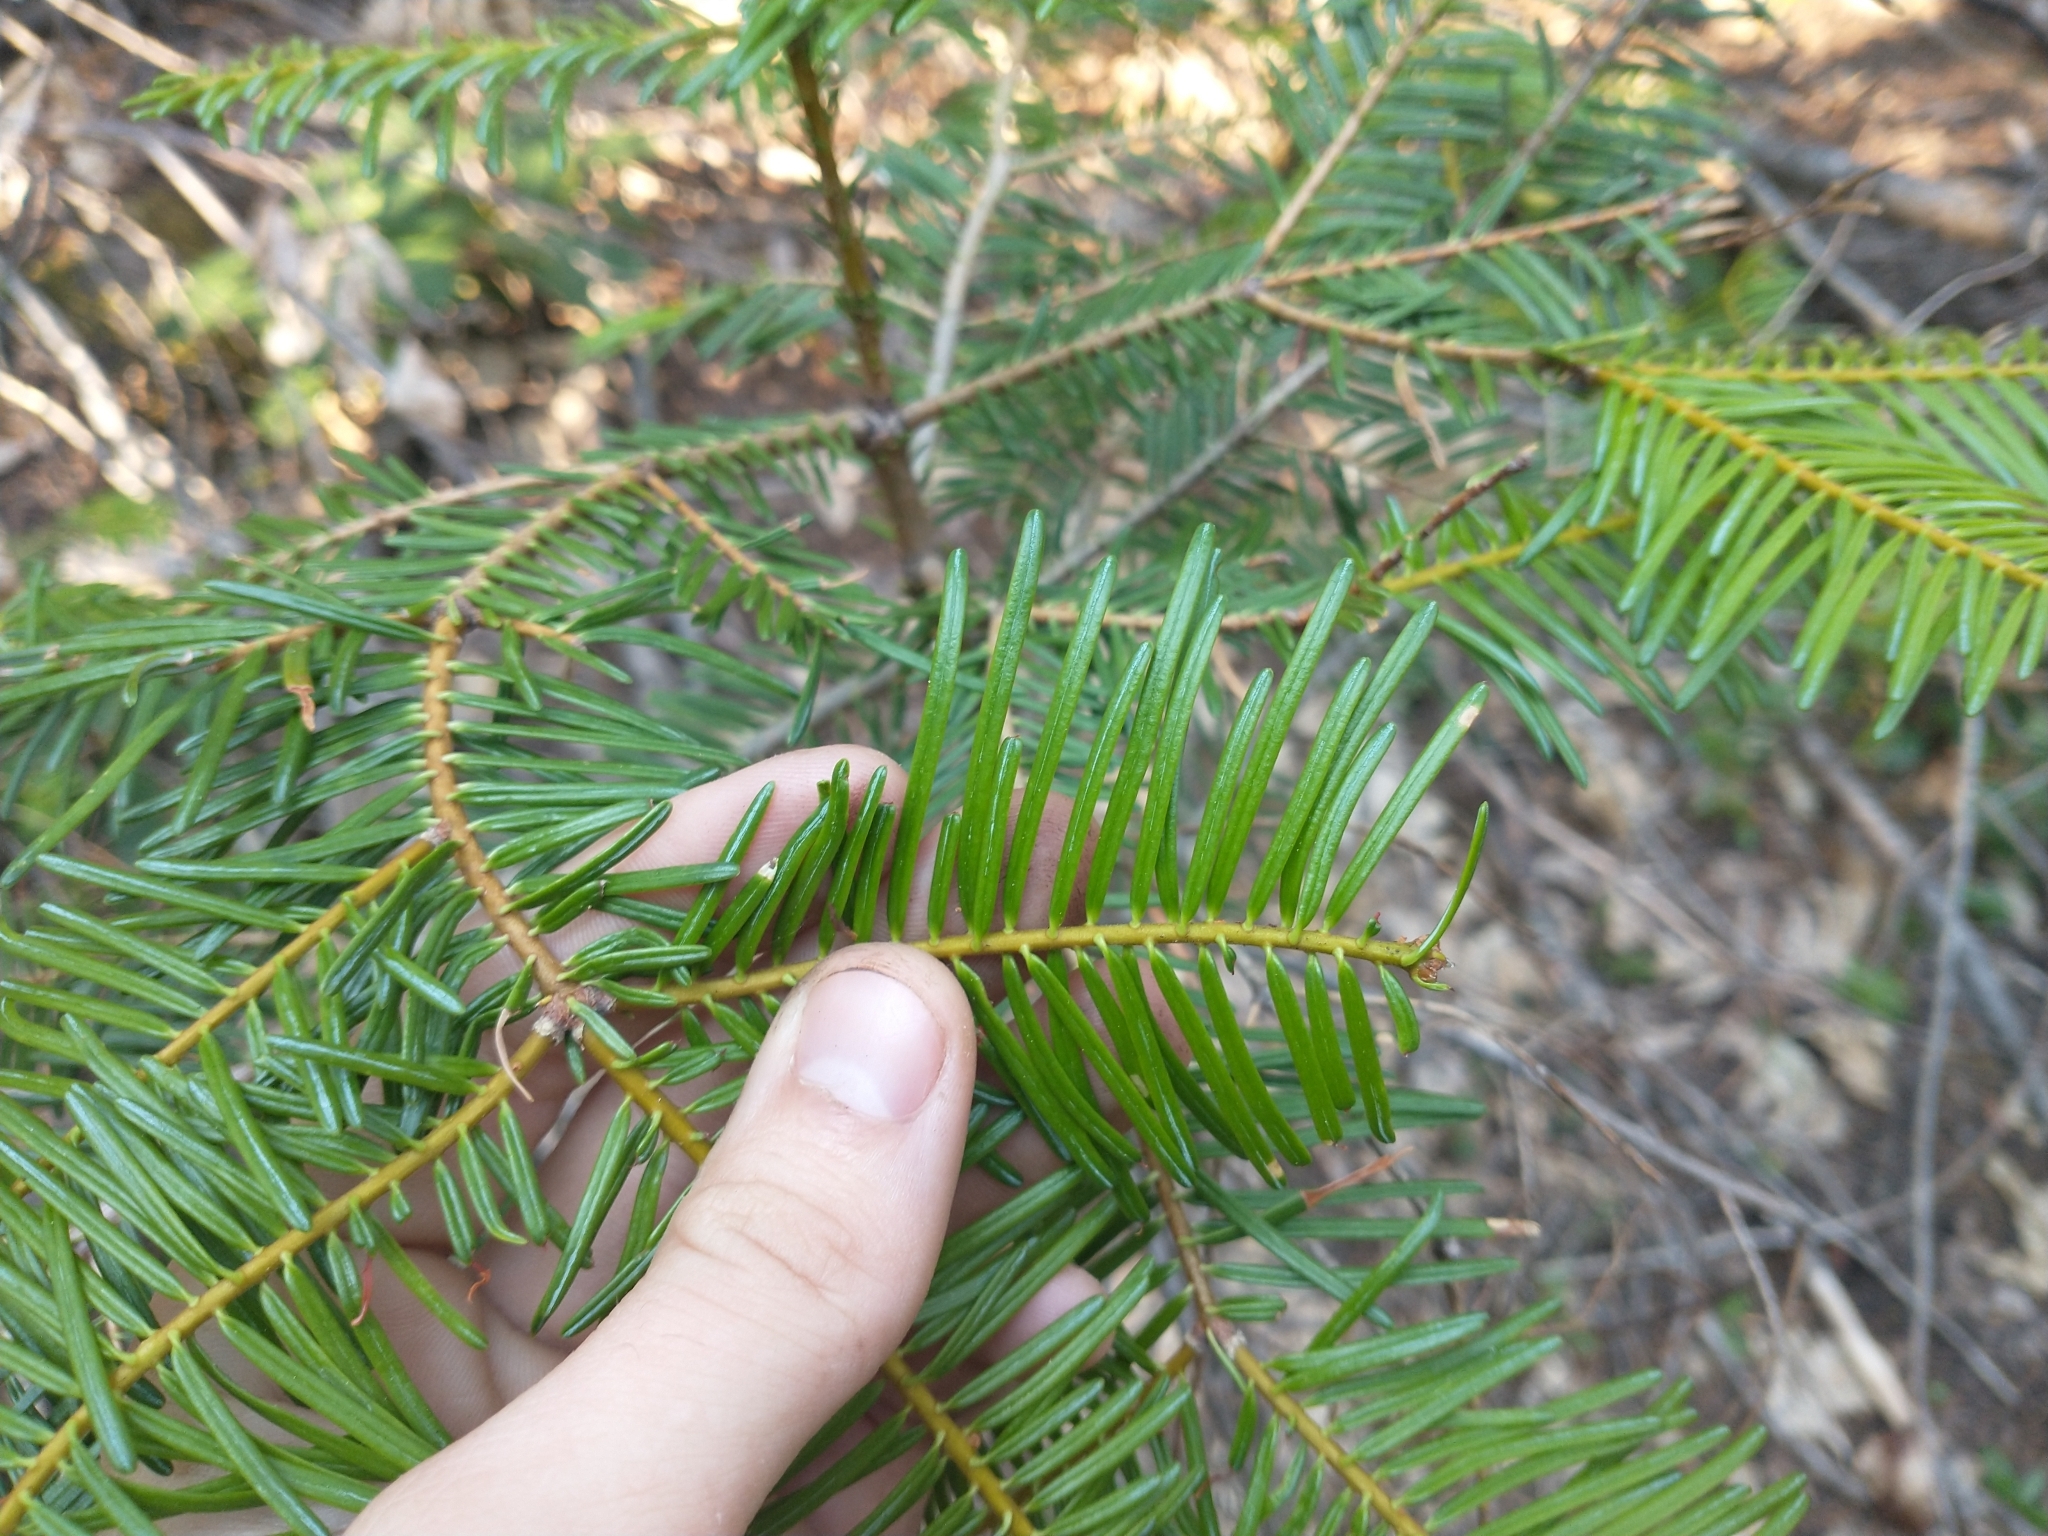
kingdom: Plantae
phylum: Tracheophyta
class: Pinopsida
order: Pinales
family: Pinaceae
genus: Abies
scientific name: Abies concolor
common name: Colorado fir
